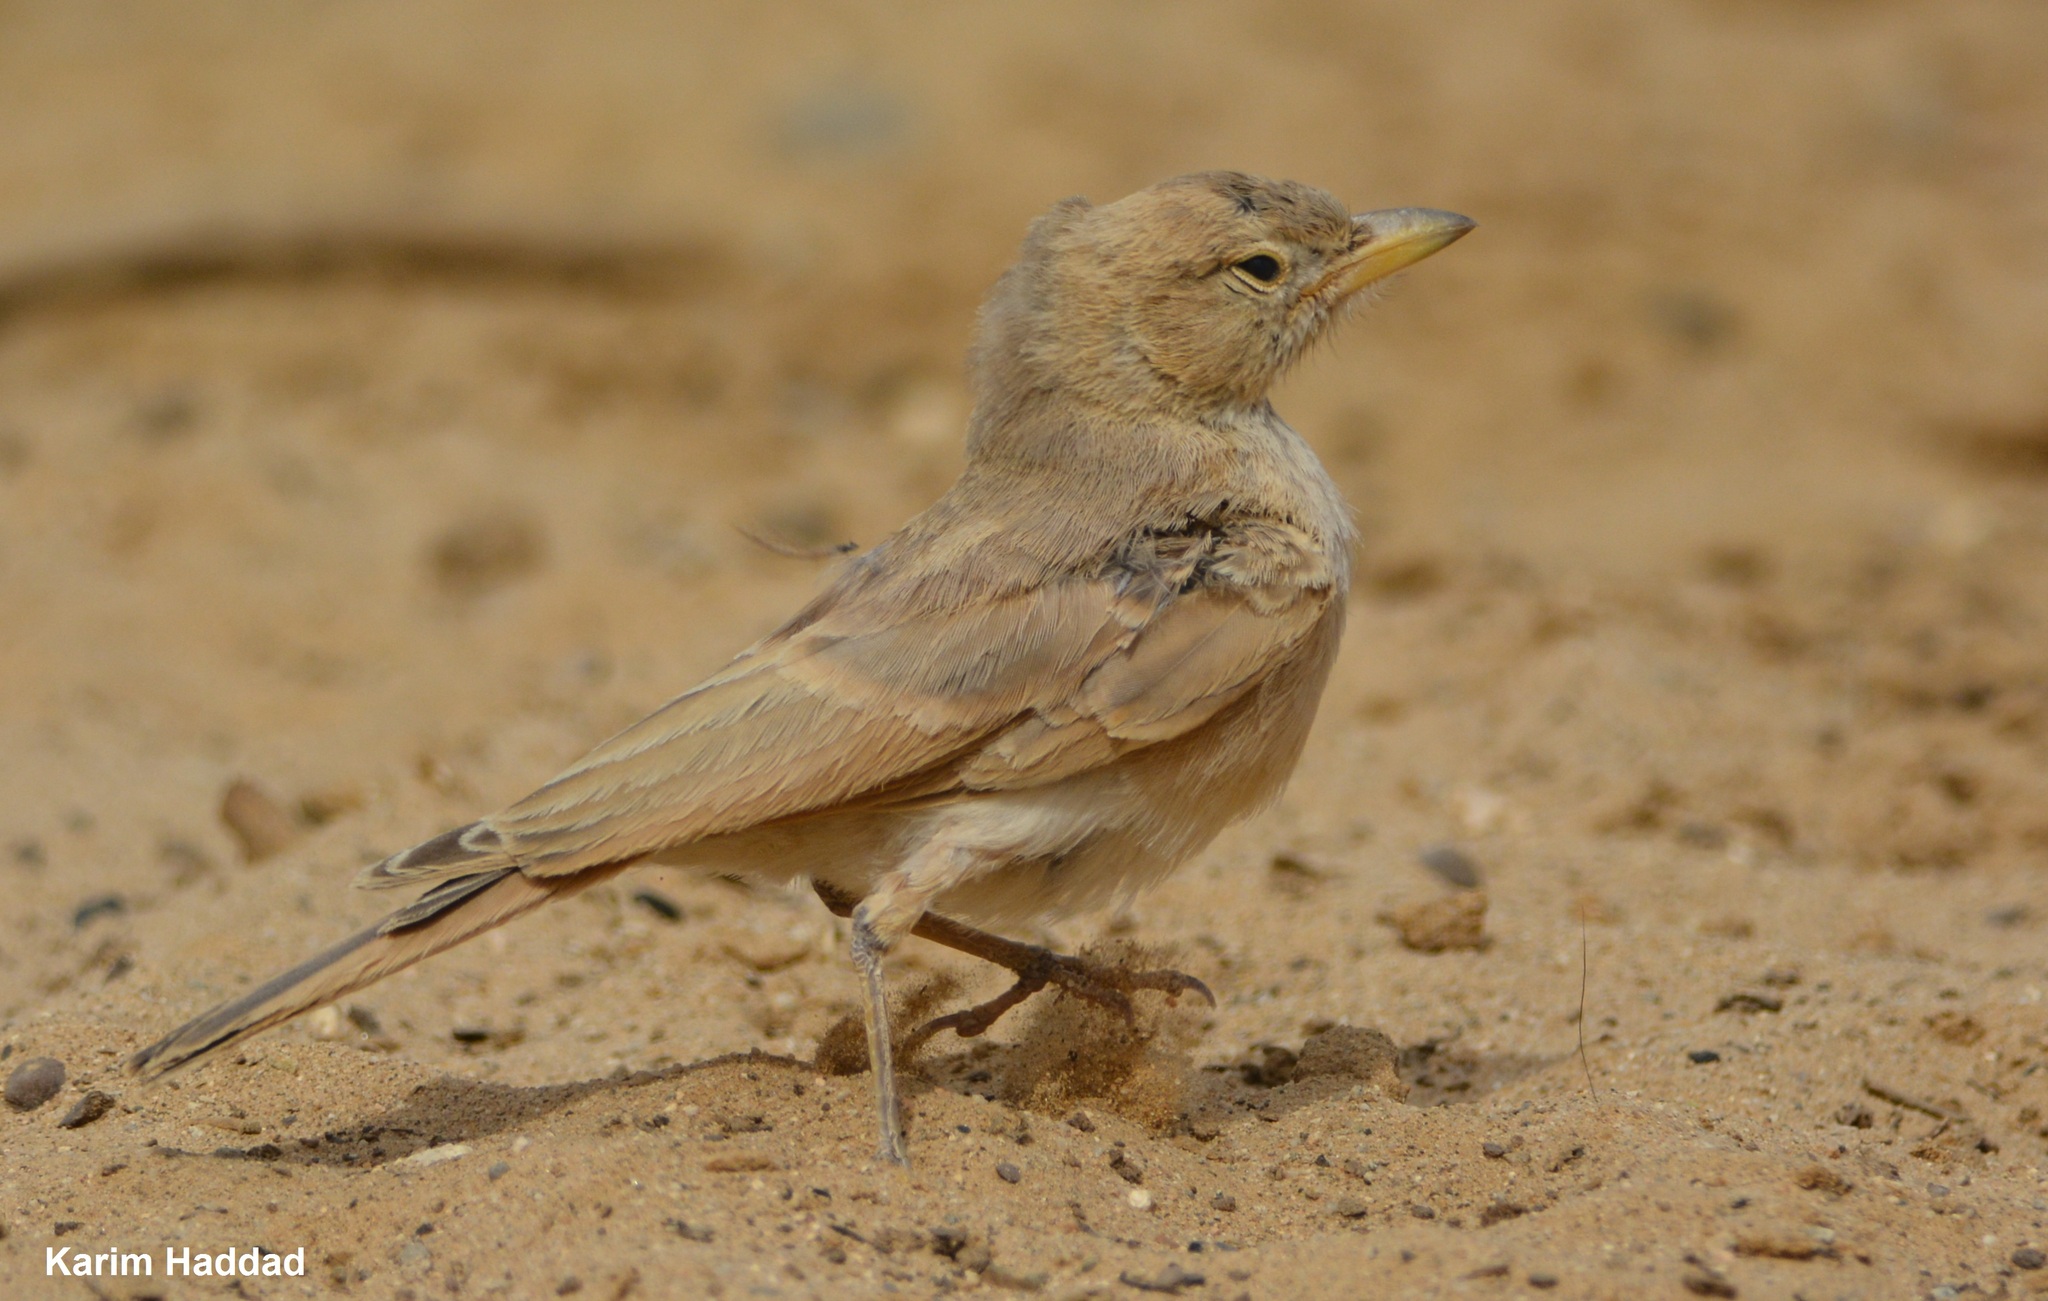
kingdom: Animalia
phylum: Chordata
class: Aves
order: Passeriformes
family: Alaudidae
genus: Ammomanes
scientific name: Ammomanes deserti
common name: Desert lark
